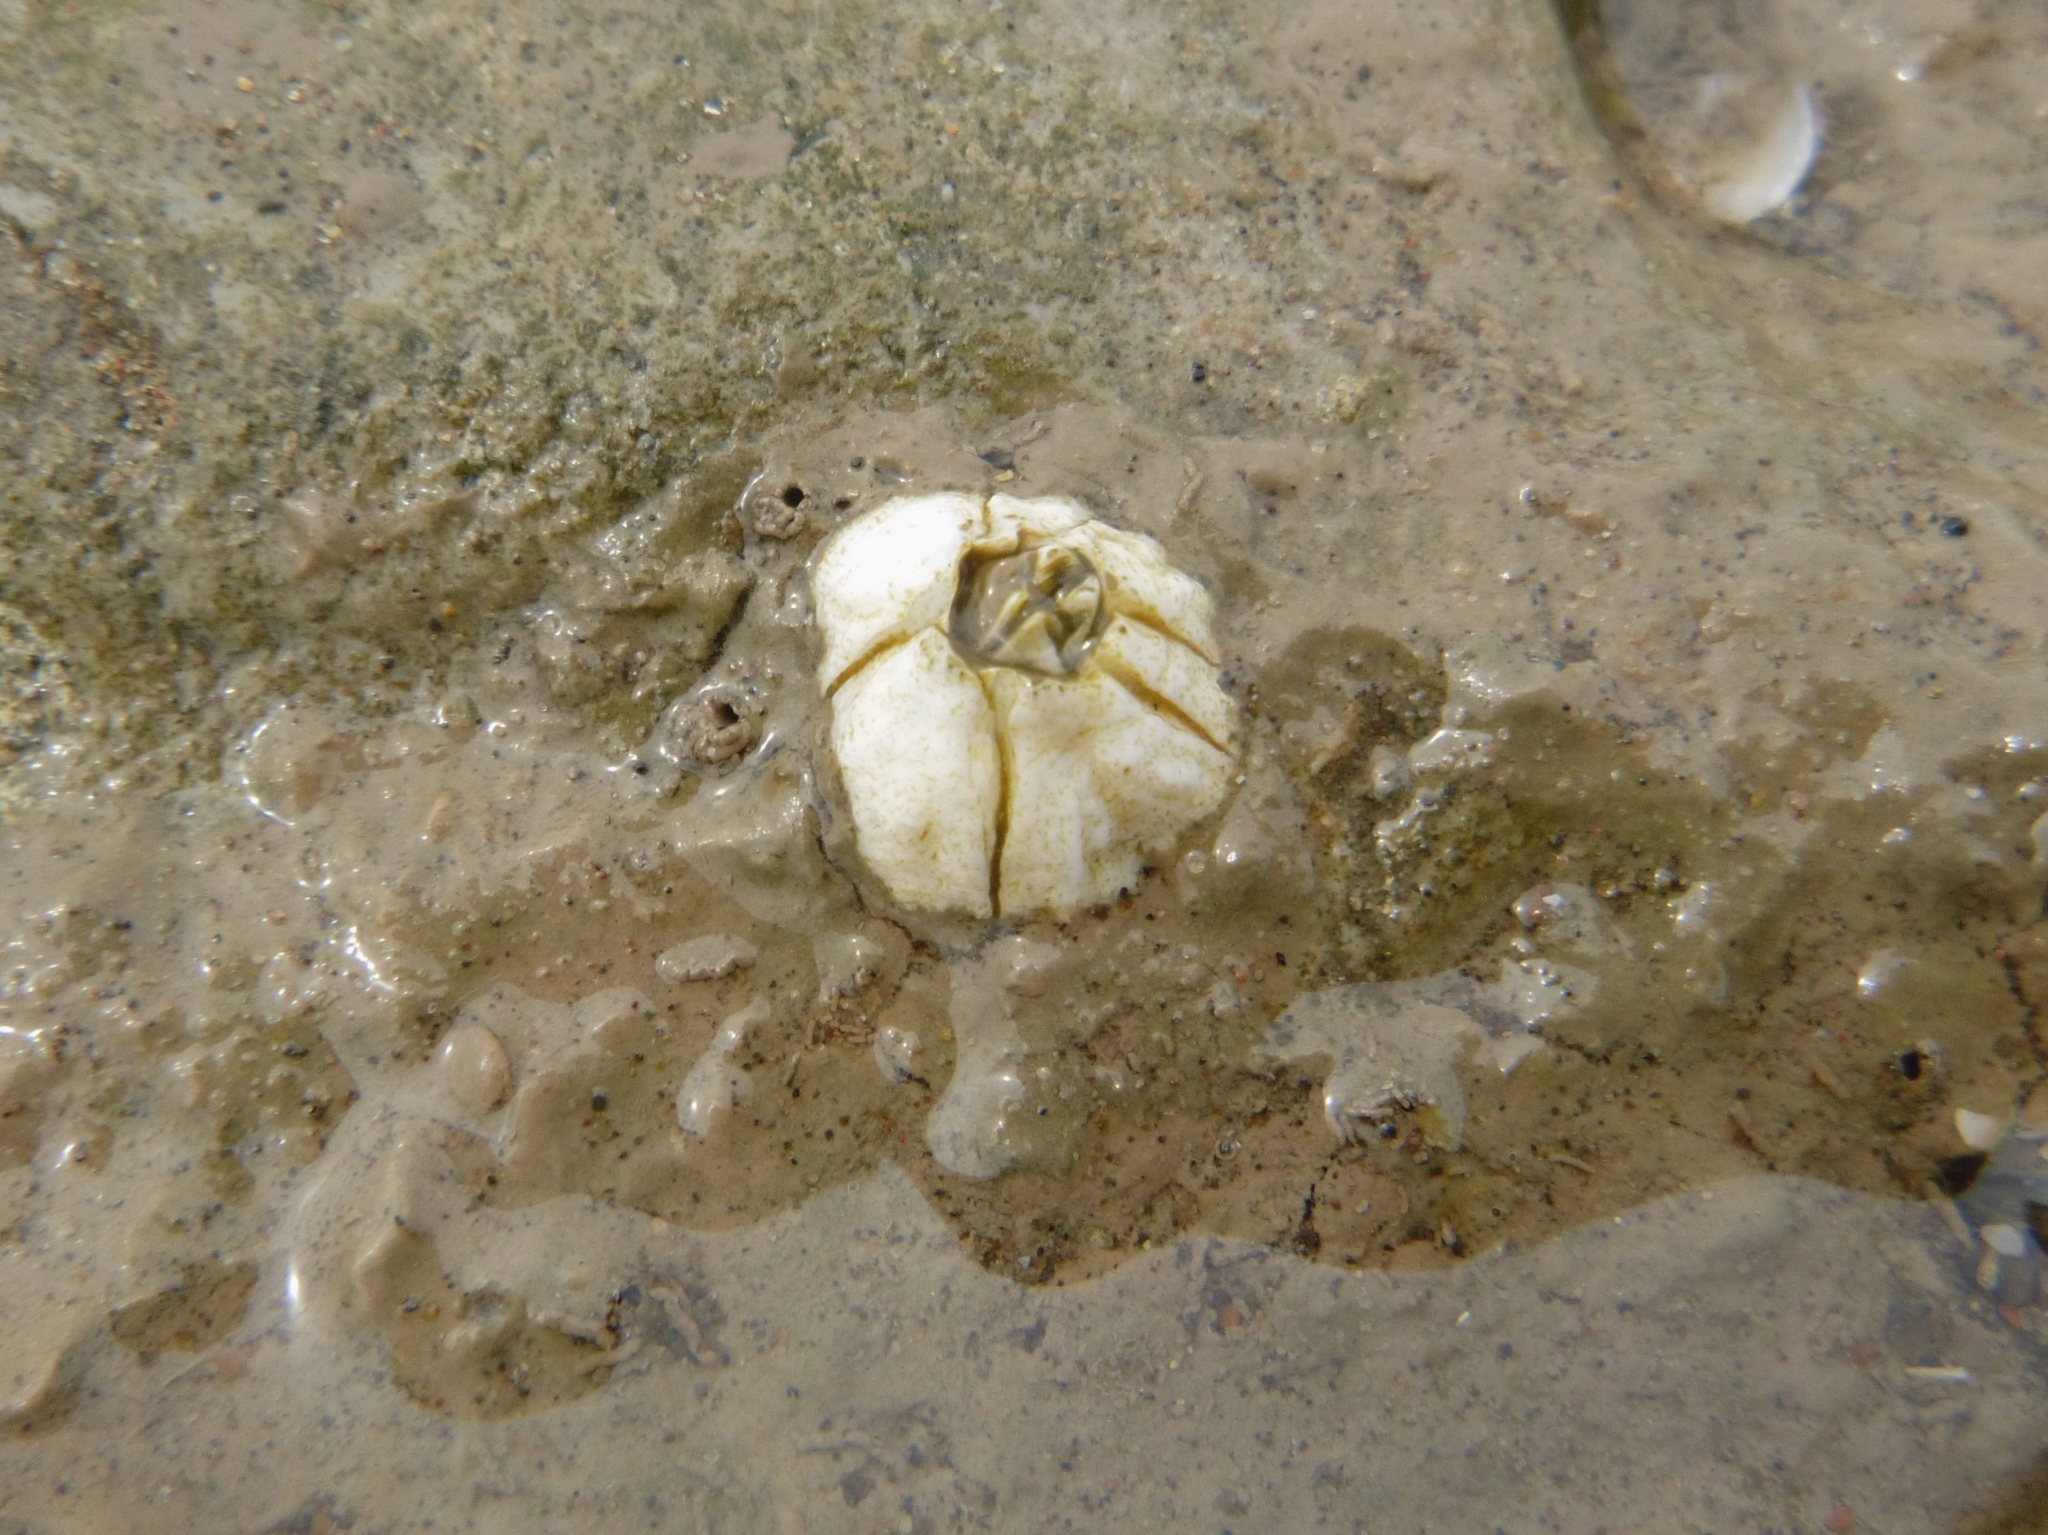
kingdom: Animalia
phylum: Arthropoda
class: Maxillopoda
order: Sessilia
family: Balanidae
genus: Balanus
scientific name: Balanus glandula
